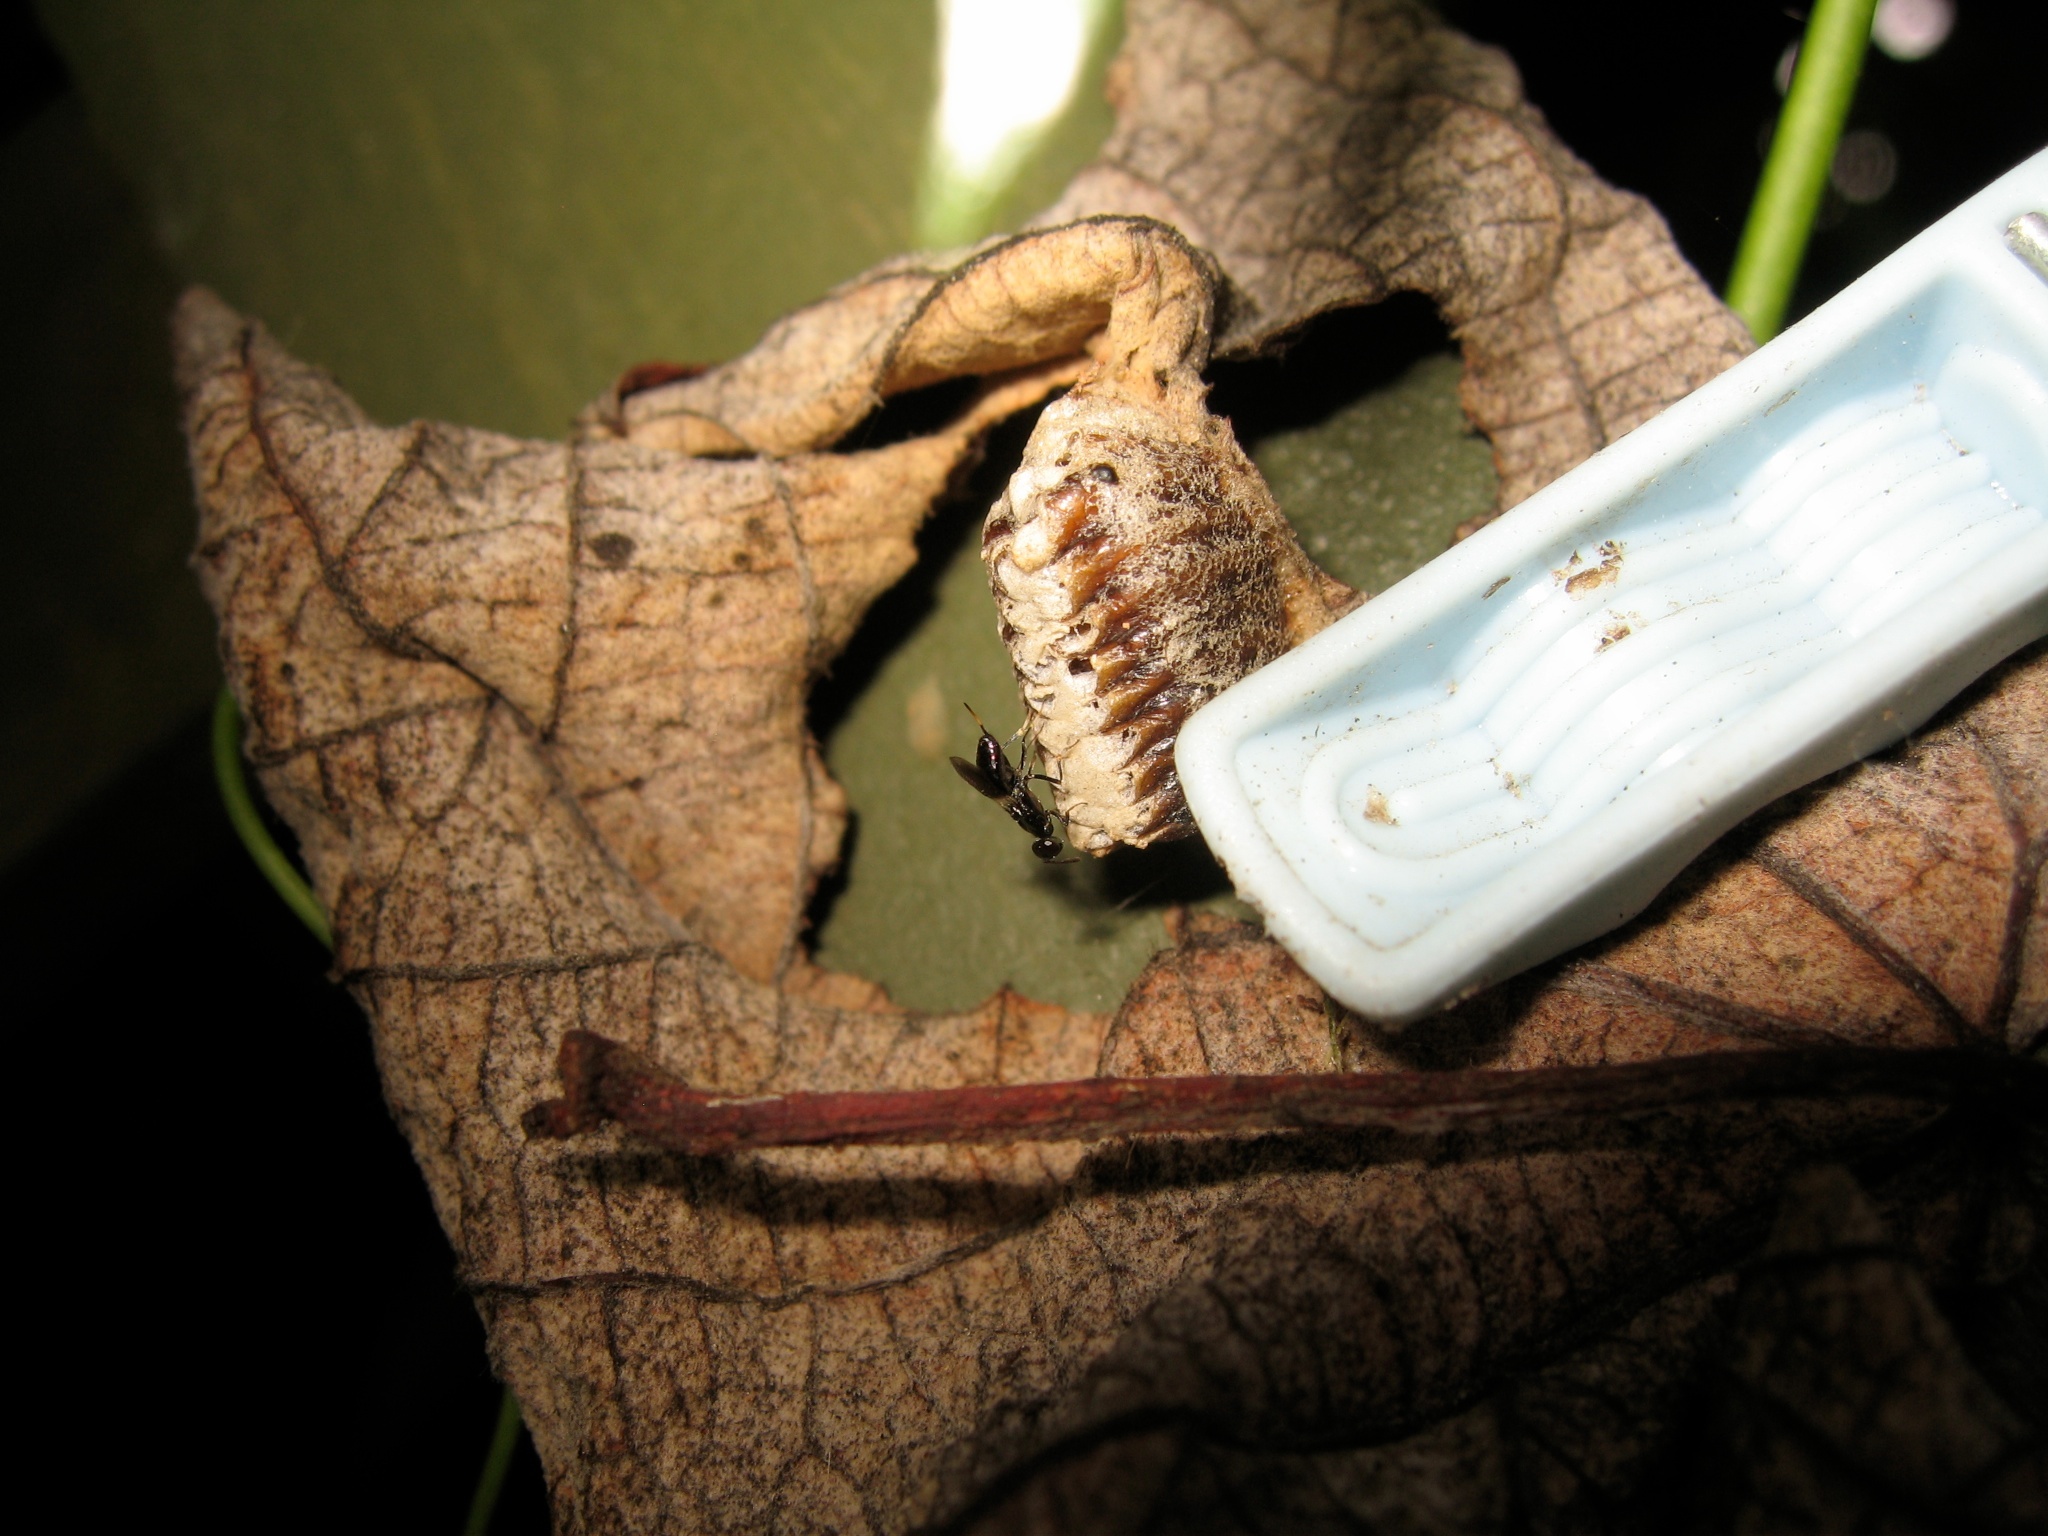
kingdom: Animalia
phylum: Arthropoda
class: Insecta
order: Hymenoptera
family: Eupelmidae
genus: Eupelmus
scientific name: Eupelmus antipoda
